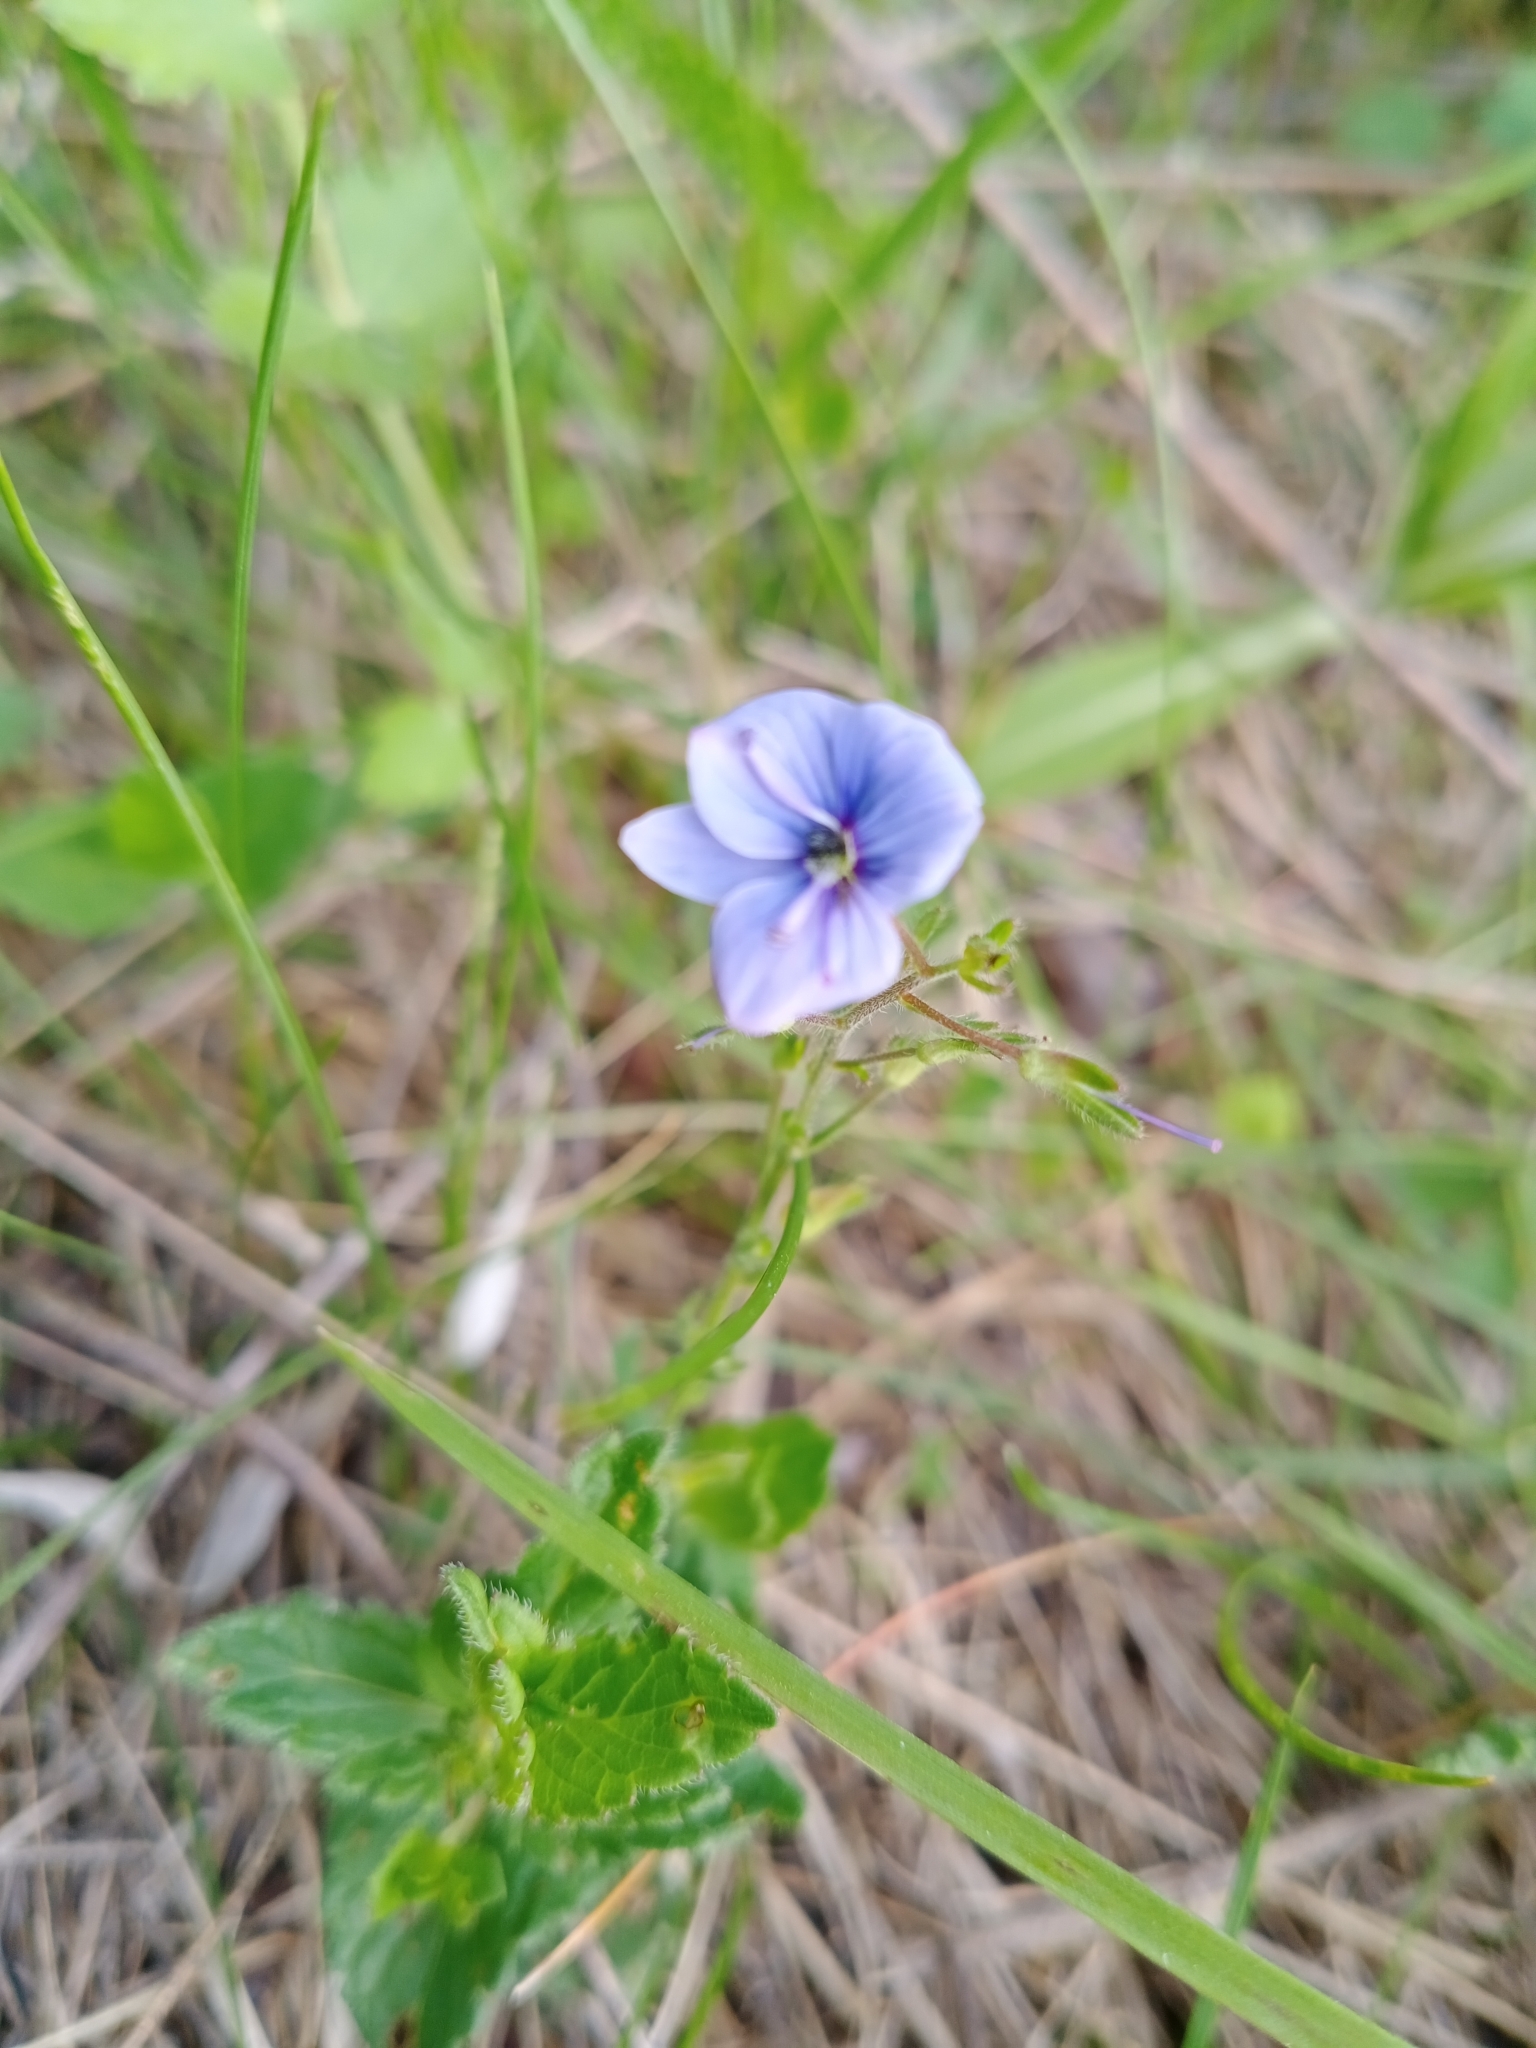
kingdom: Plantae
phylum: Tracheophyta
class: Magnoliopsida
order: Lamiales
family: Plantaginaceae
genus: Veronica
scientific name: Veronica chamaedrys
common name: Germander speedwell
